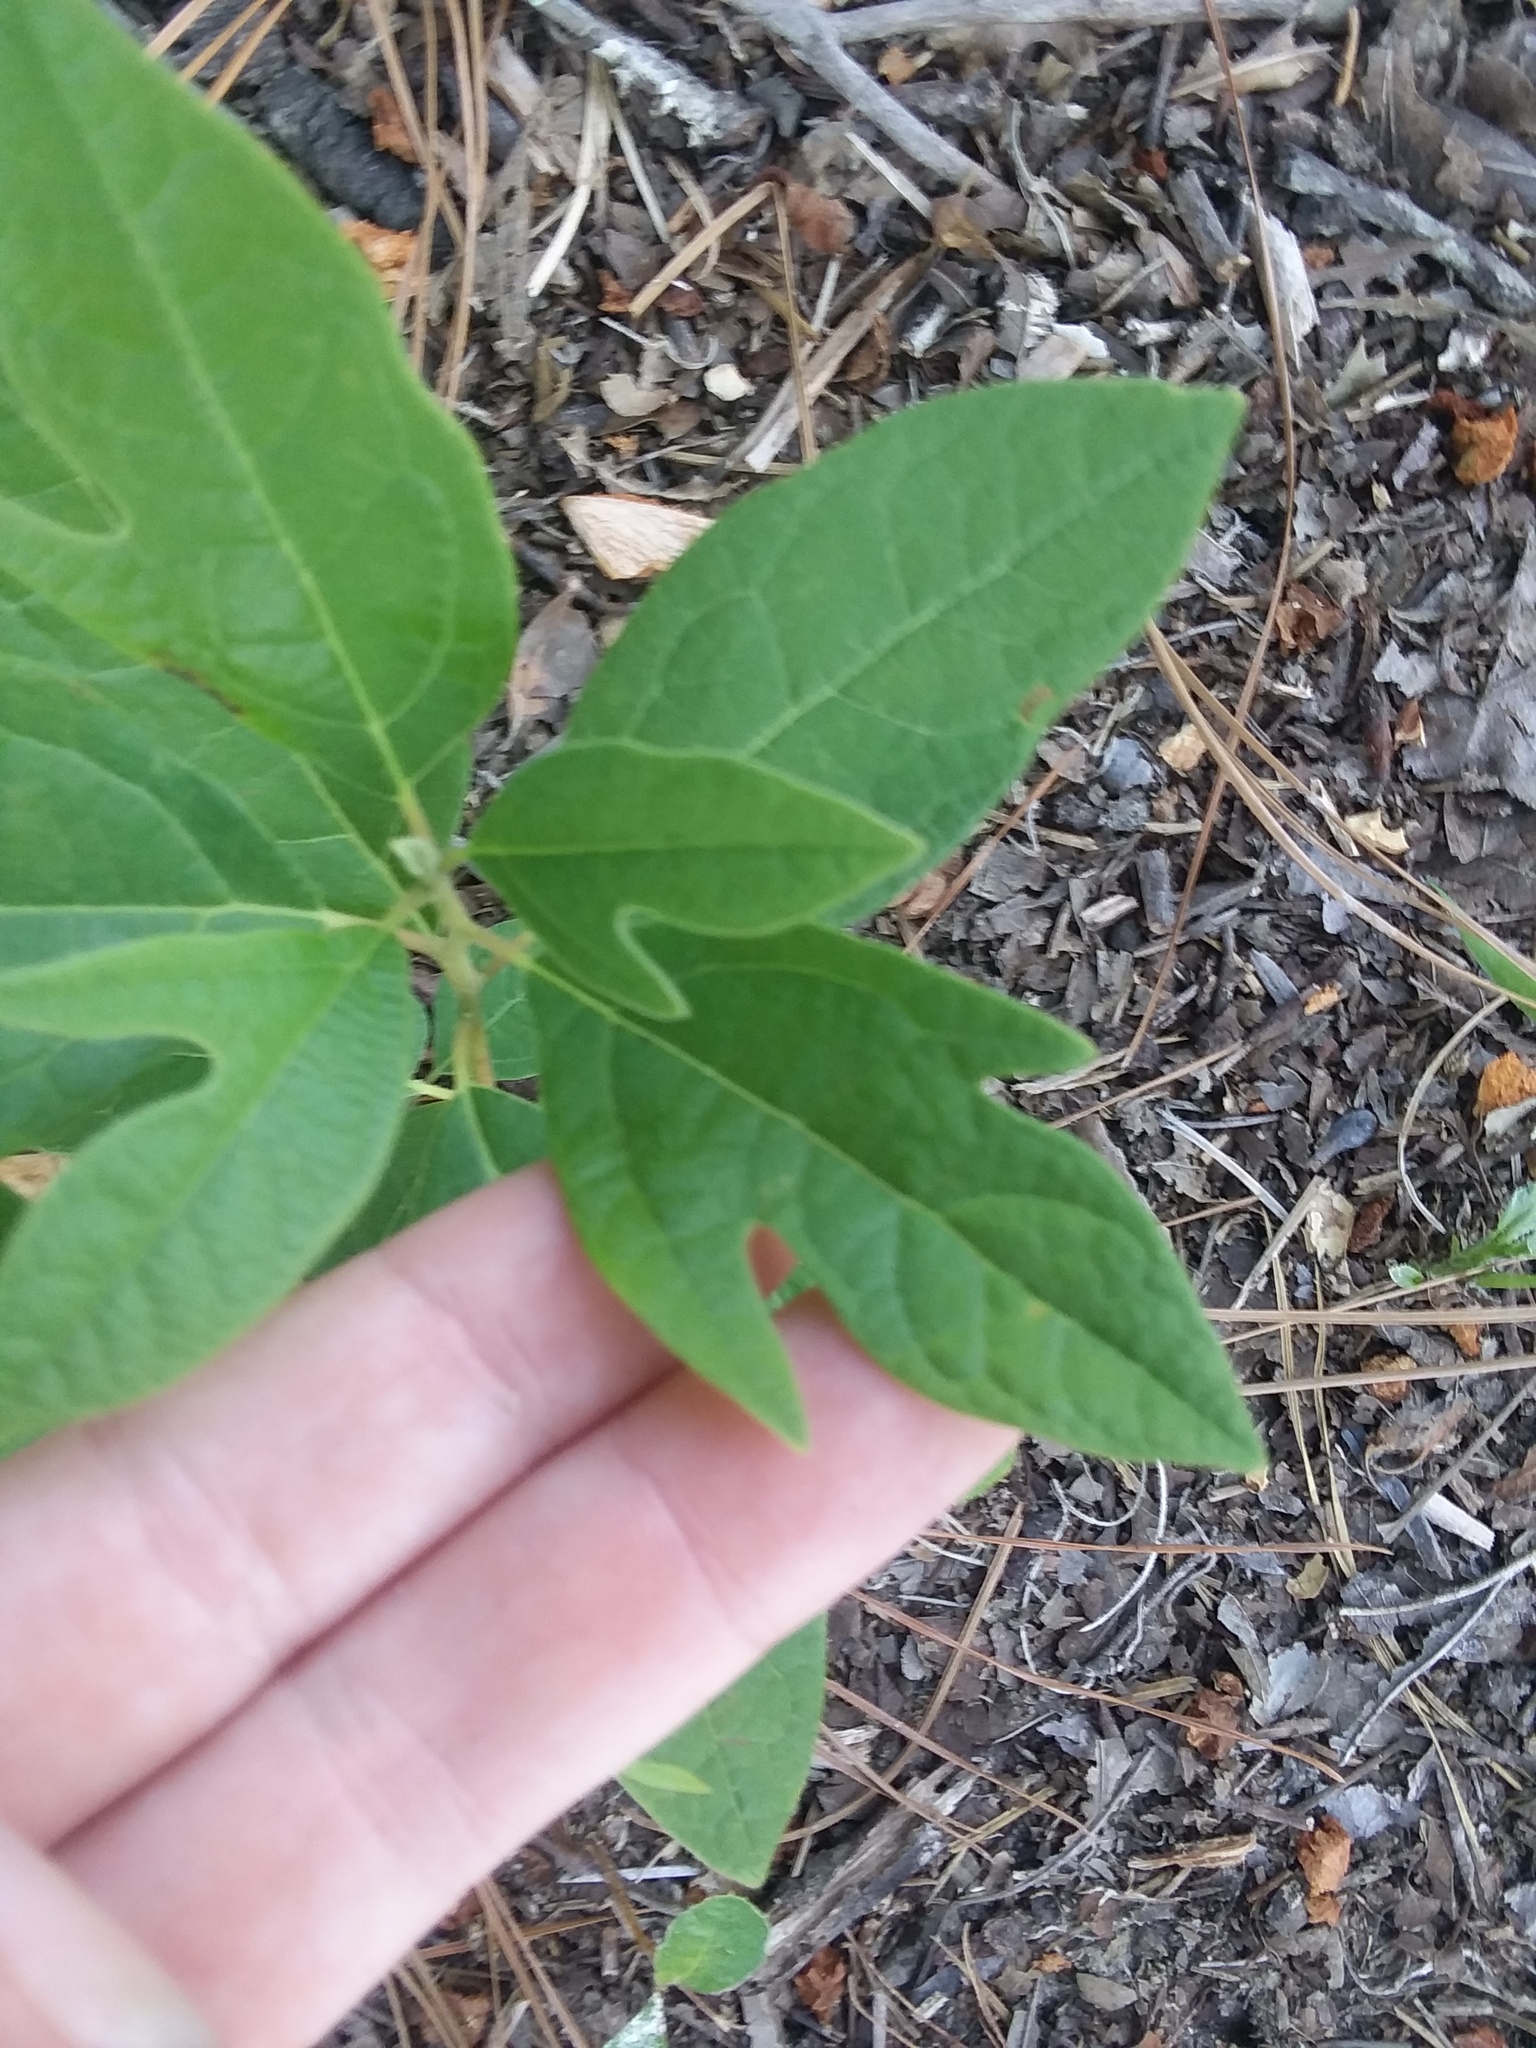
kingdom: Plantae
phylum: Tracheophyta
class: Magnoliopsida
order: Laurales
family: Lauraceae
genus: Sassafras
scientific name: Sassafras albidum
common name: Sassafras
